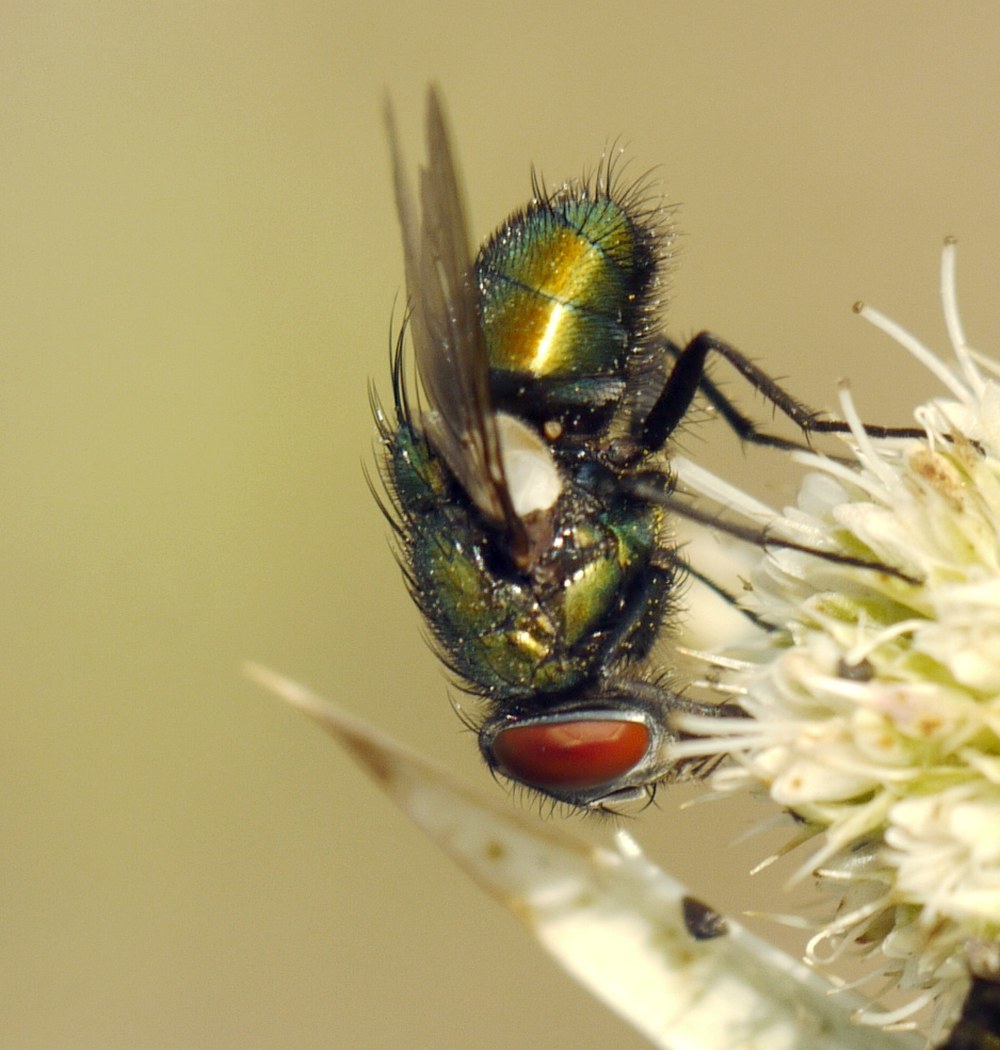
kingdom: Animalia
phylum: Arthropoda
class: Insecta
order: Diptera
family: Calliphoridae
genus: Lucilia
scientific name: Lucilia
